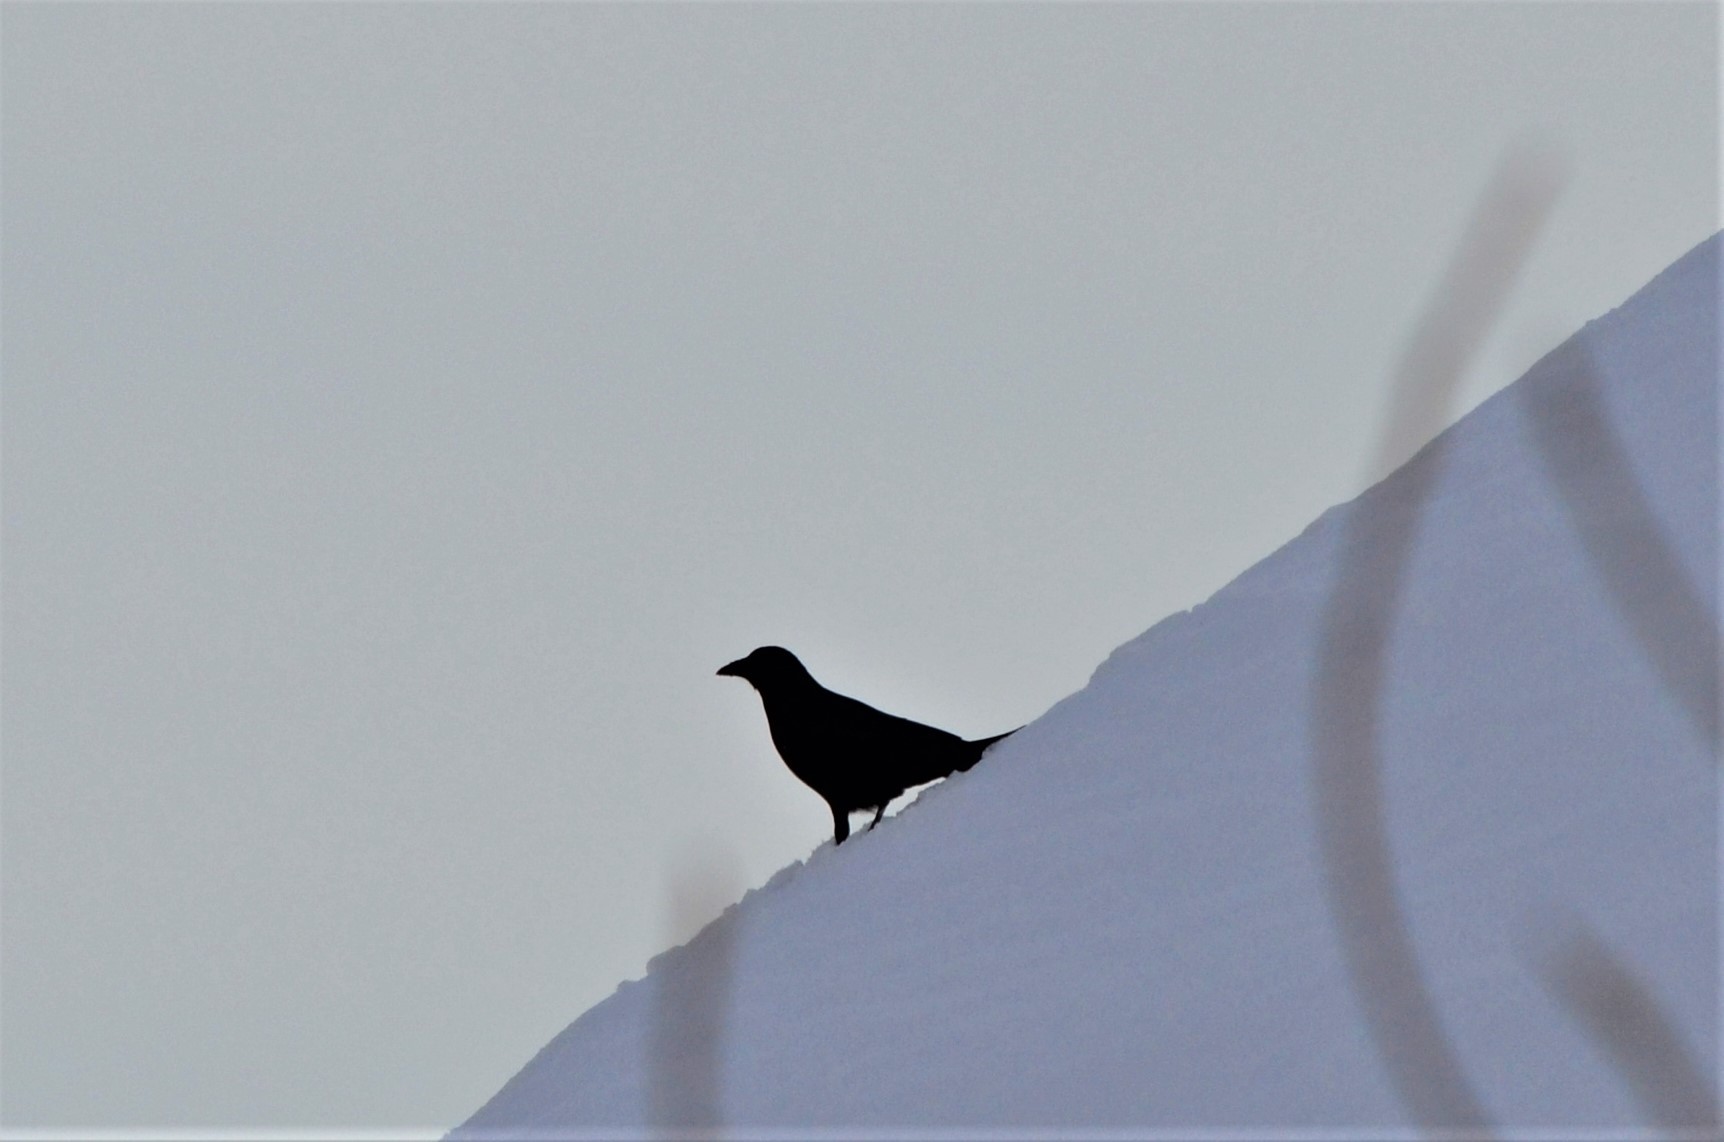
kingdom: Animalia
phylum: Chordata
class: Aves
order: Passeriformes
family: Corvidae
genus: Corvus
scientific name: Corvus corone
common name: Carrion crow
